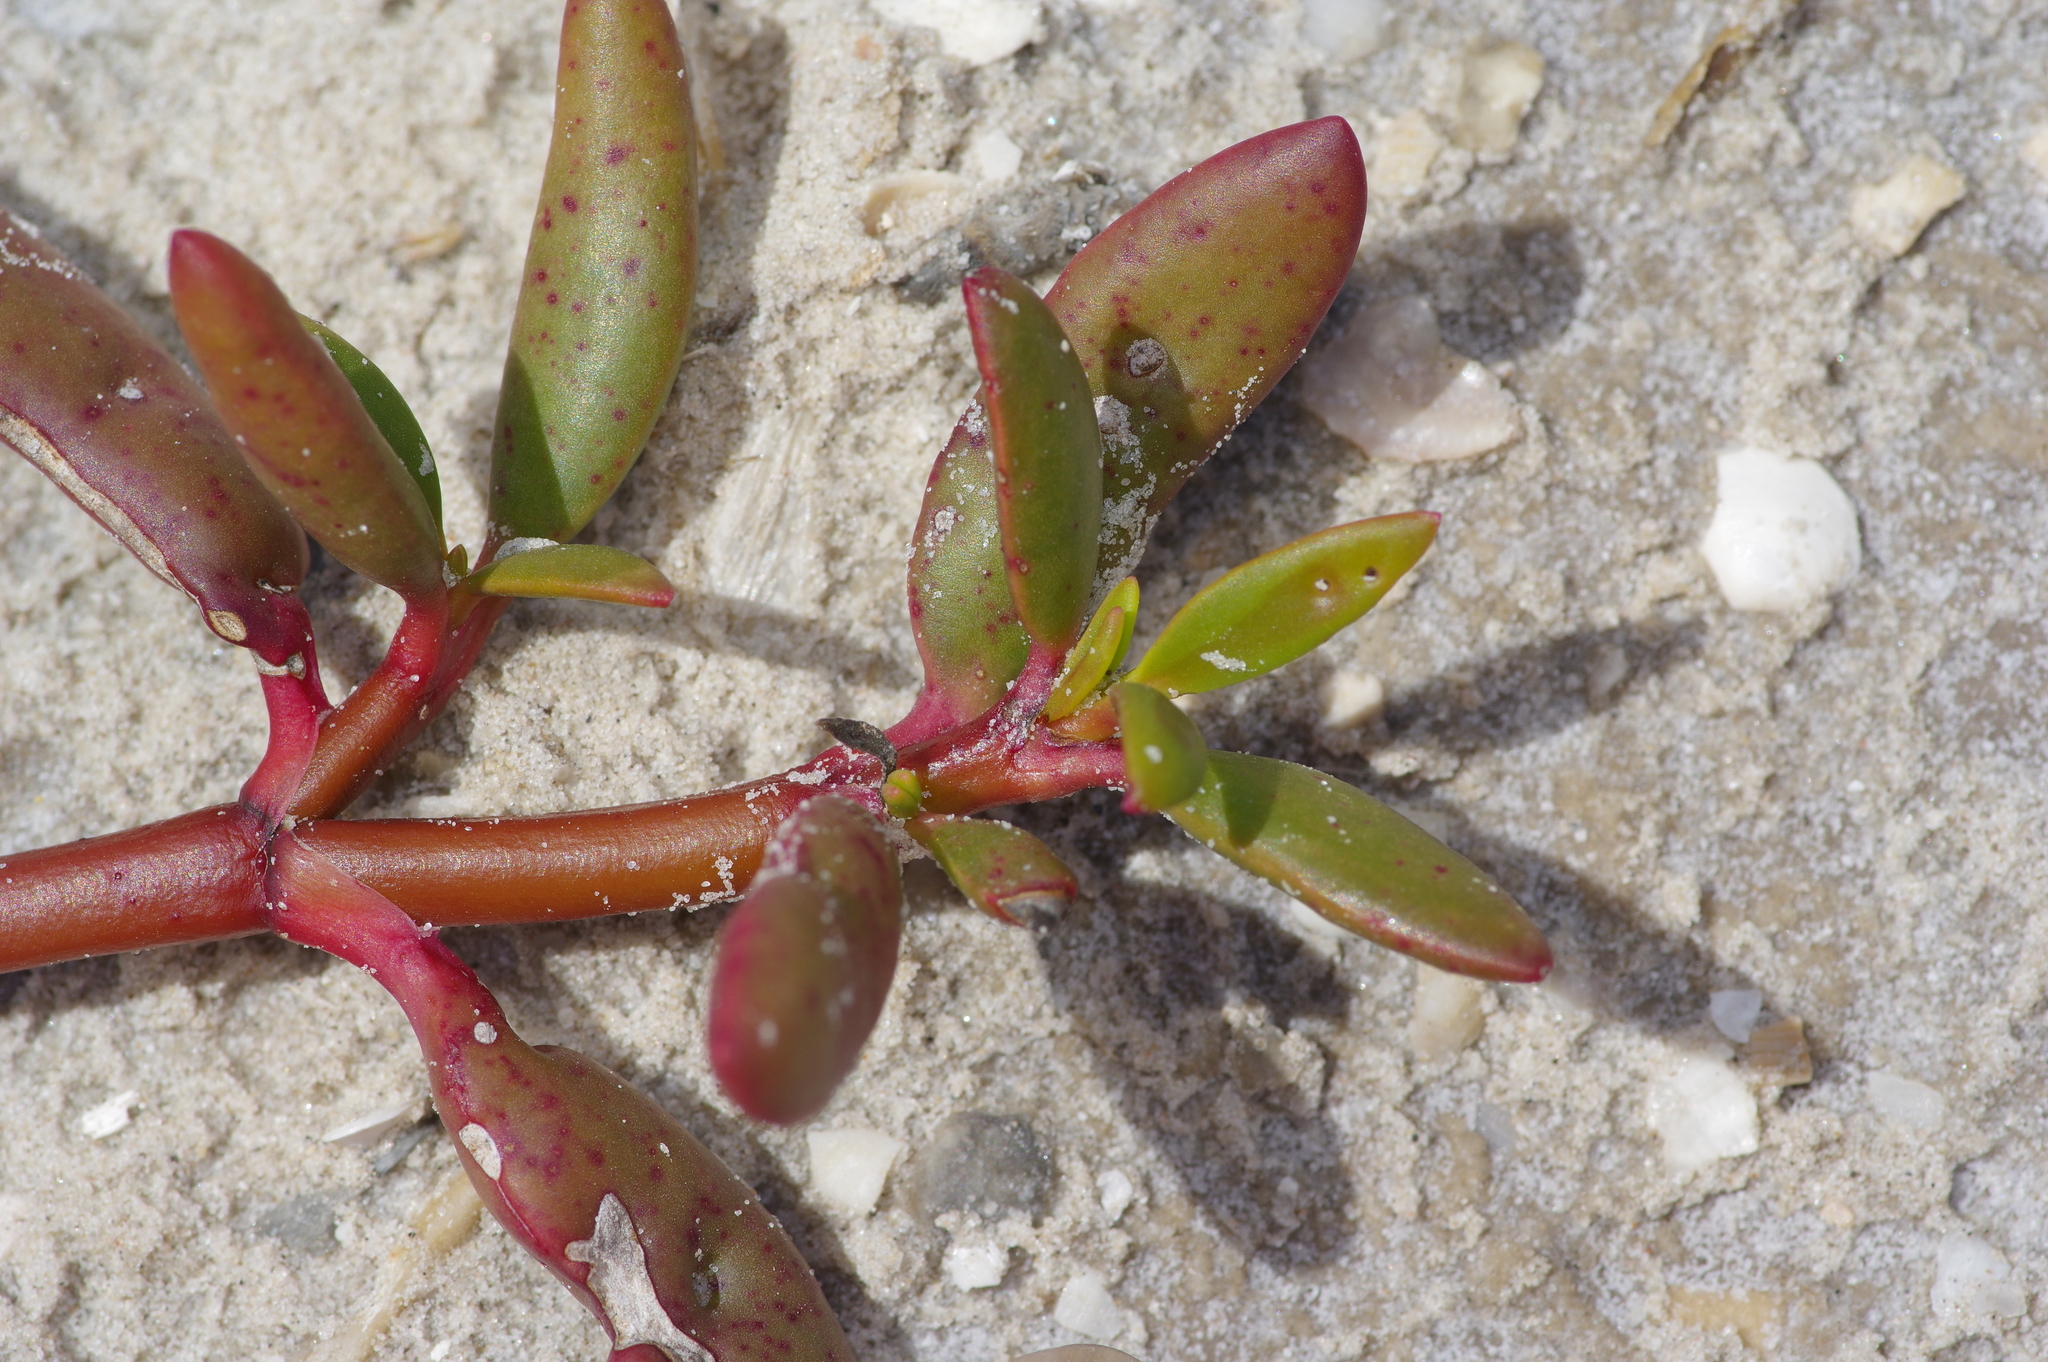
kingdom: Plantae
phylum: Tracheophyta
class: Magnoliopsida
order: Caryophyllales
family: Aizoaceae
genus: Sesuvium
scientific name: Sesuvium portulacastrum
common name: Sea-purslane
